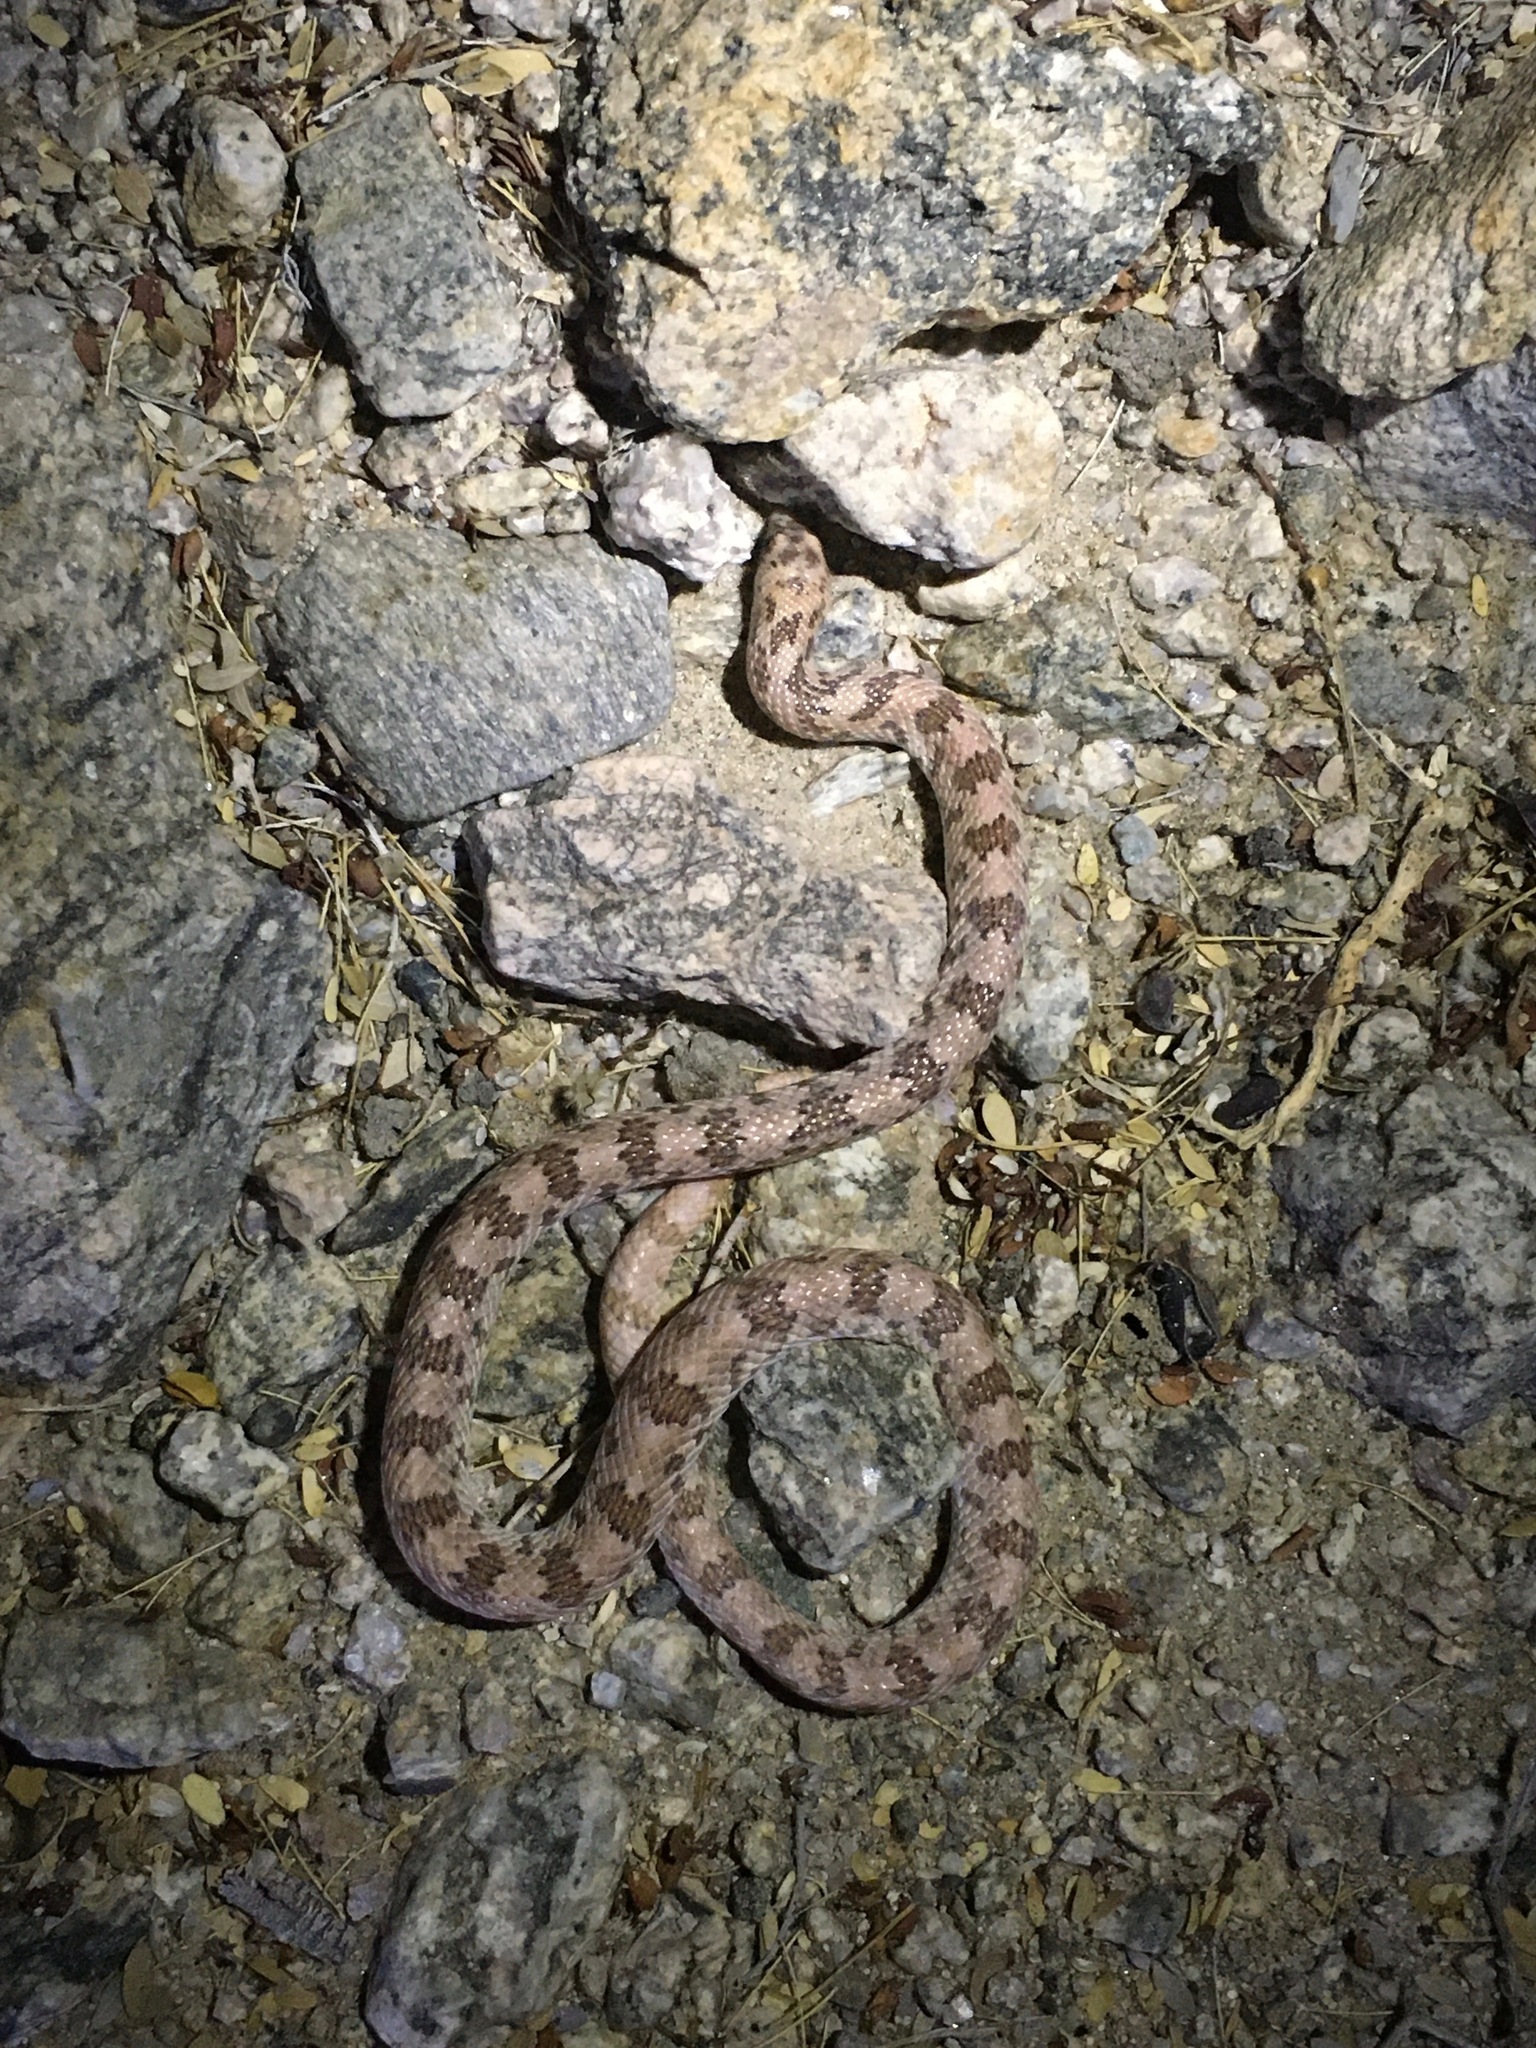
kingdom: Animalia
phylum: Chordata
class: Squamata
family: Colubridae
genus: Phyllorhynchus
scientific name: Phyllorhynchus decurtatus
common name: Spotted leafnose snake
